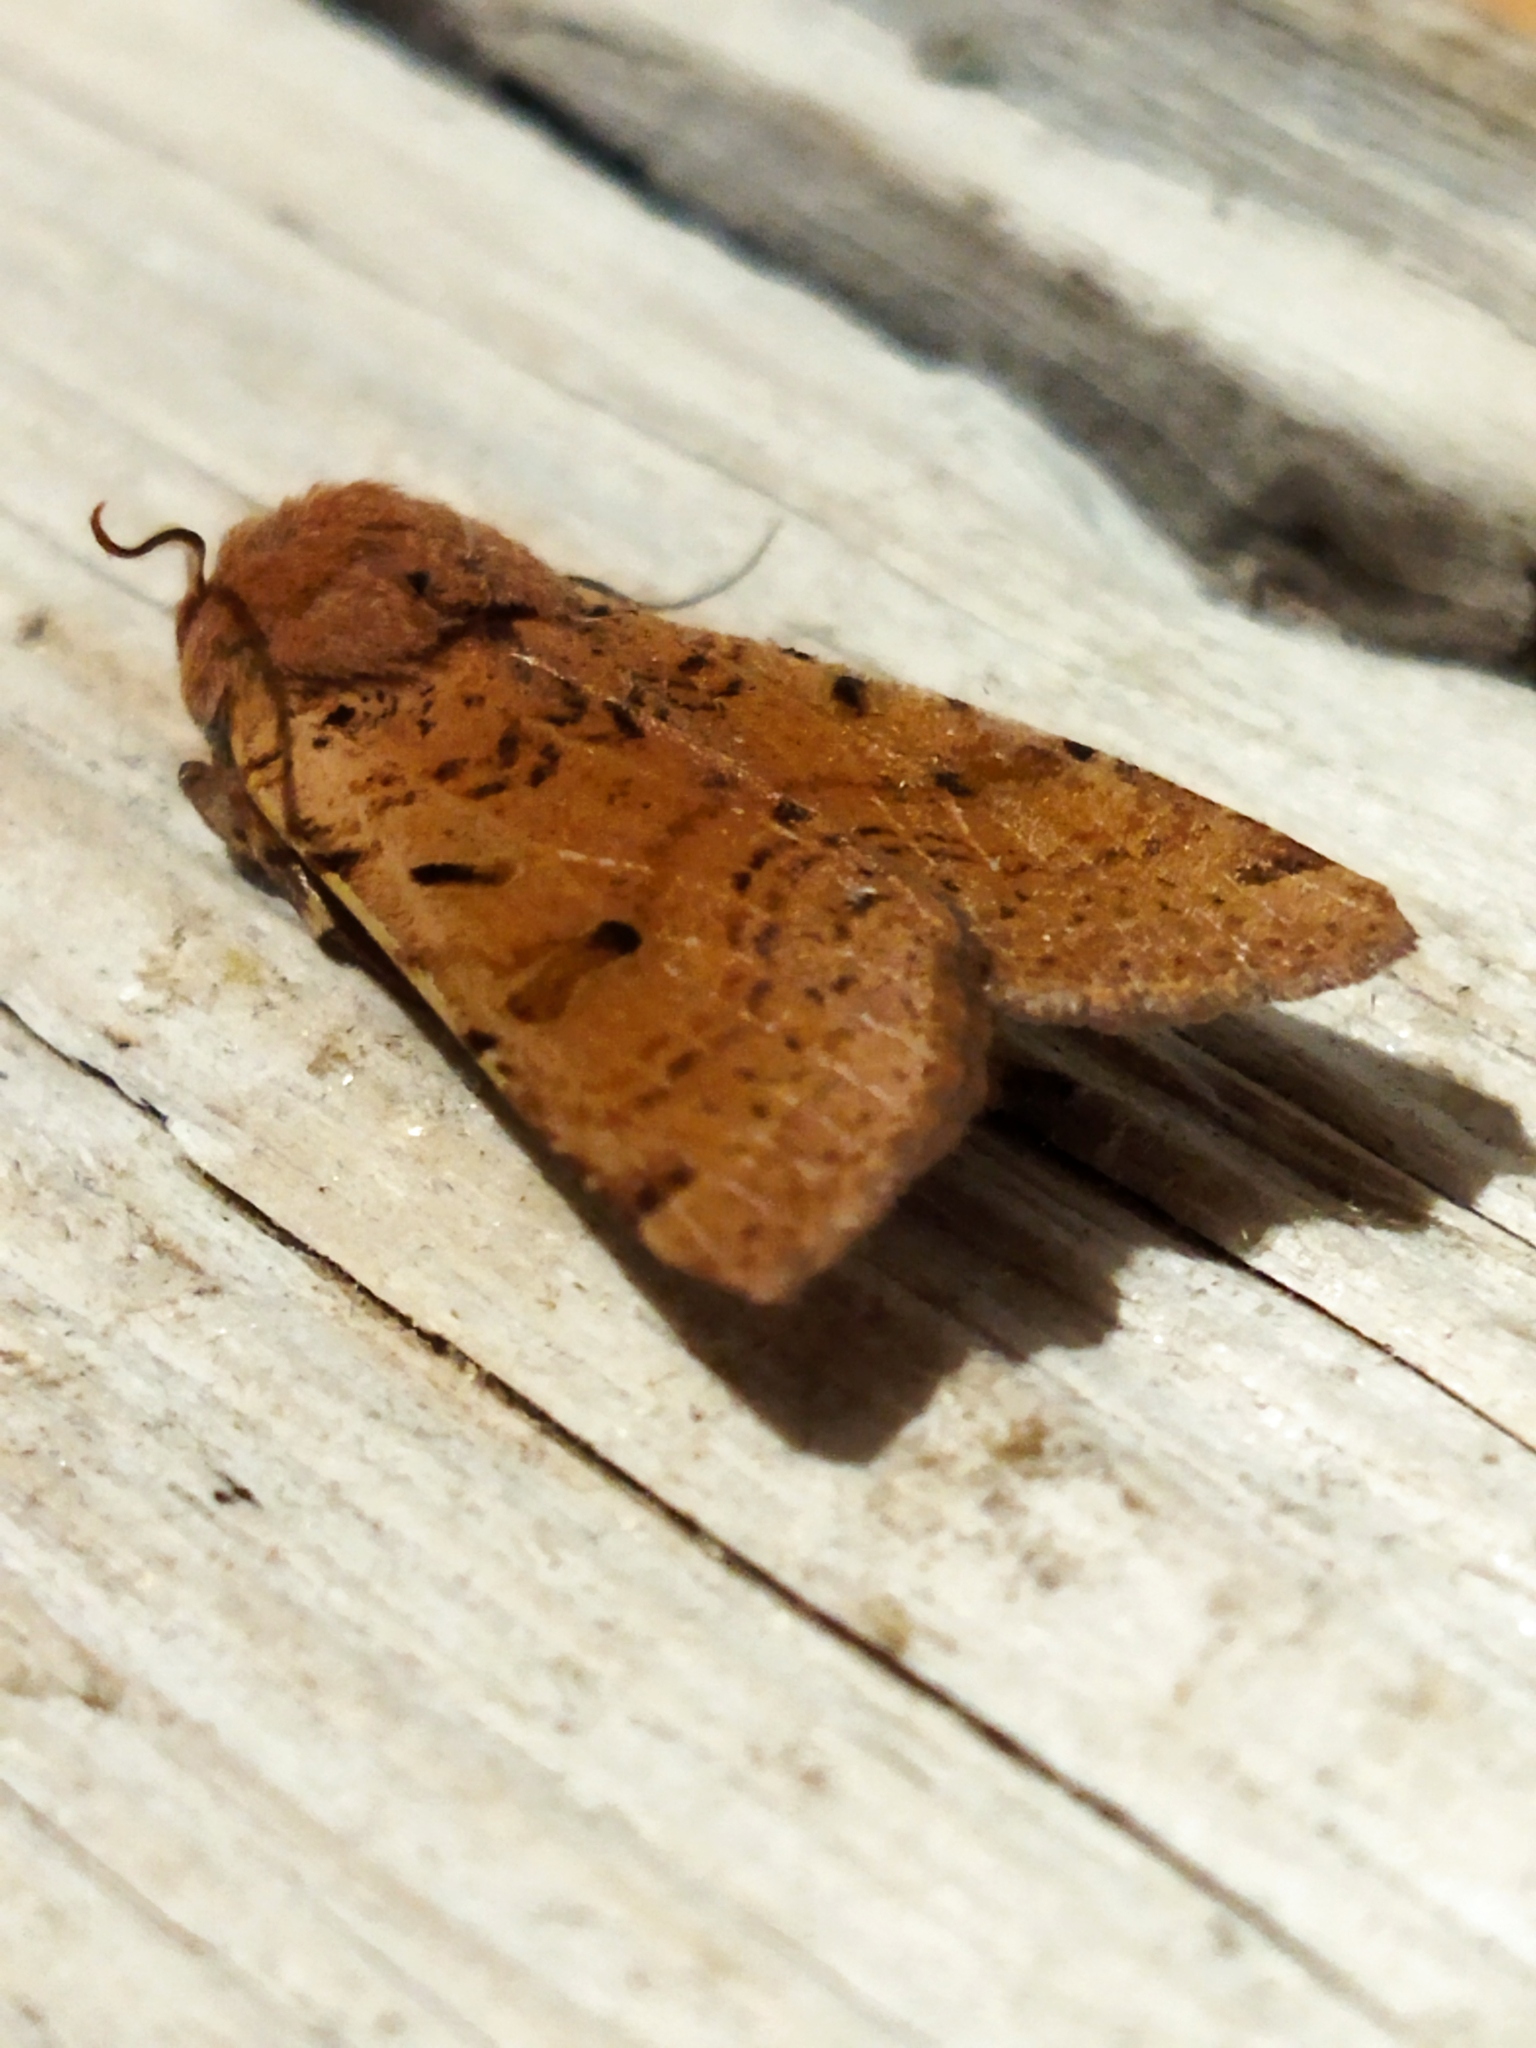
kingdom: Animalia
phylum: Arthropoda
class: Insecta
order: Lepidoptera
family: Noctuidae
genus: Agrochola
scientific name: Agrochola lychnidis
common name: Beaded chestnut
